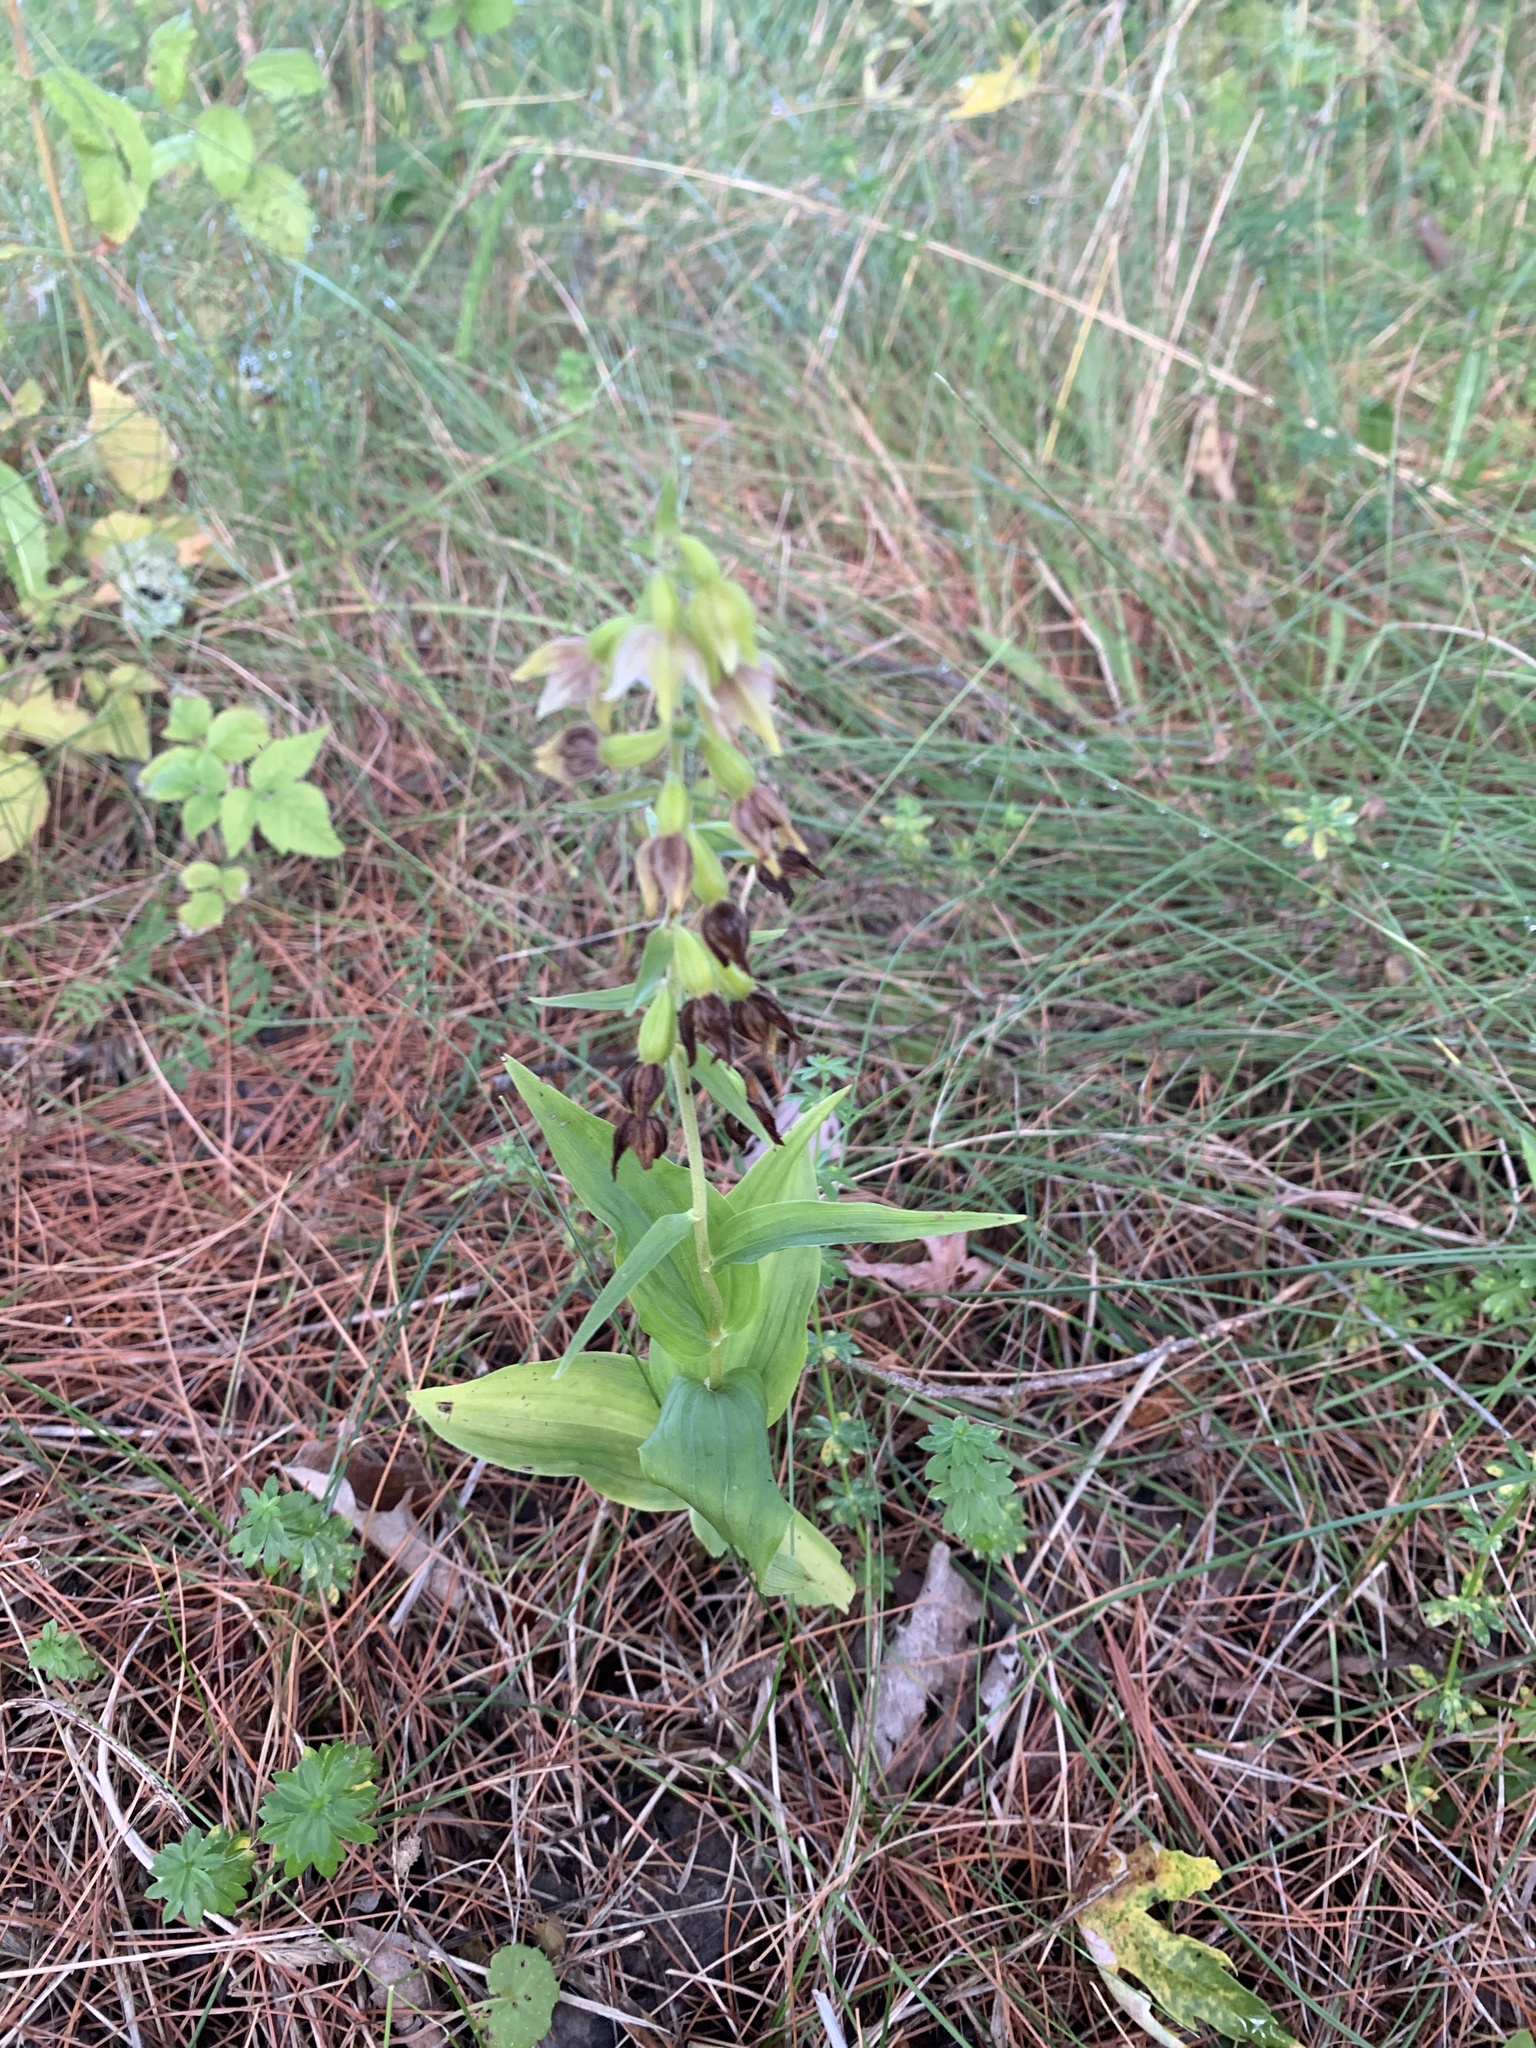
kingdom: Plantae
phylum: Tracheophyta
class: Liliopsida
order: Asparagales
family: Orchidaceae
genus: Epipactis
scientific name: Epipactis helleborine
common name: Broad-leaved helleborine
